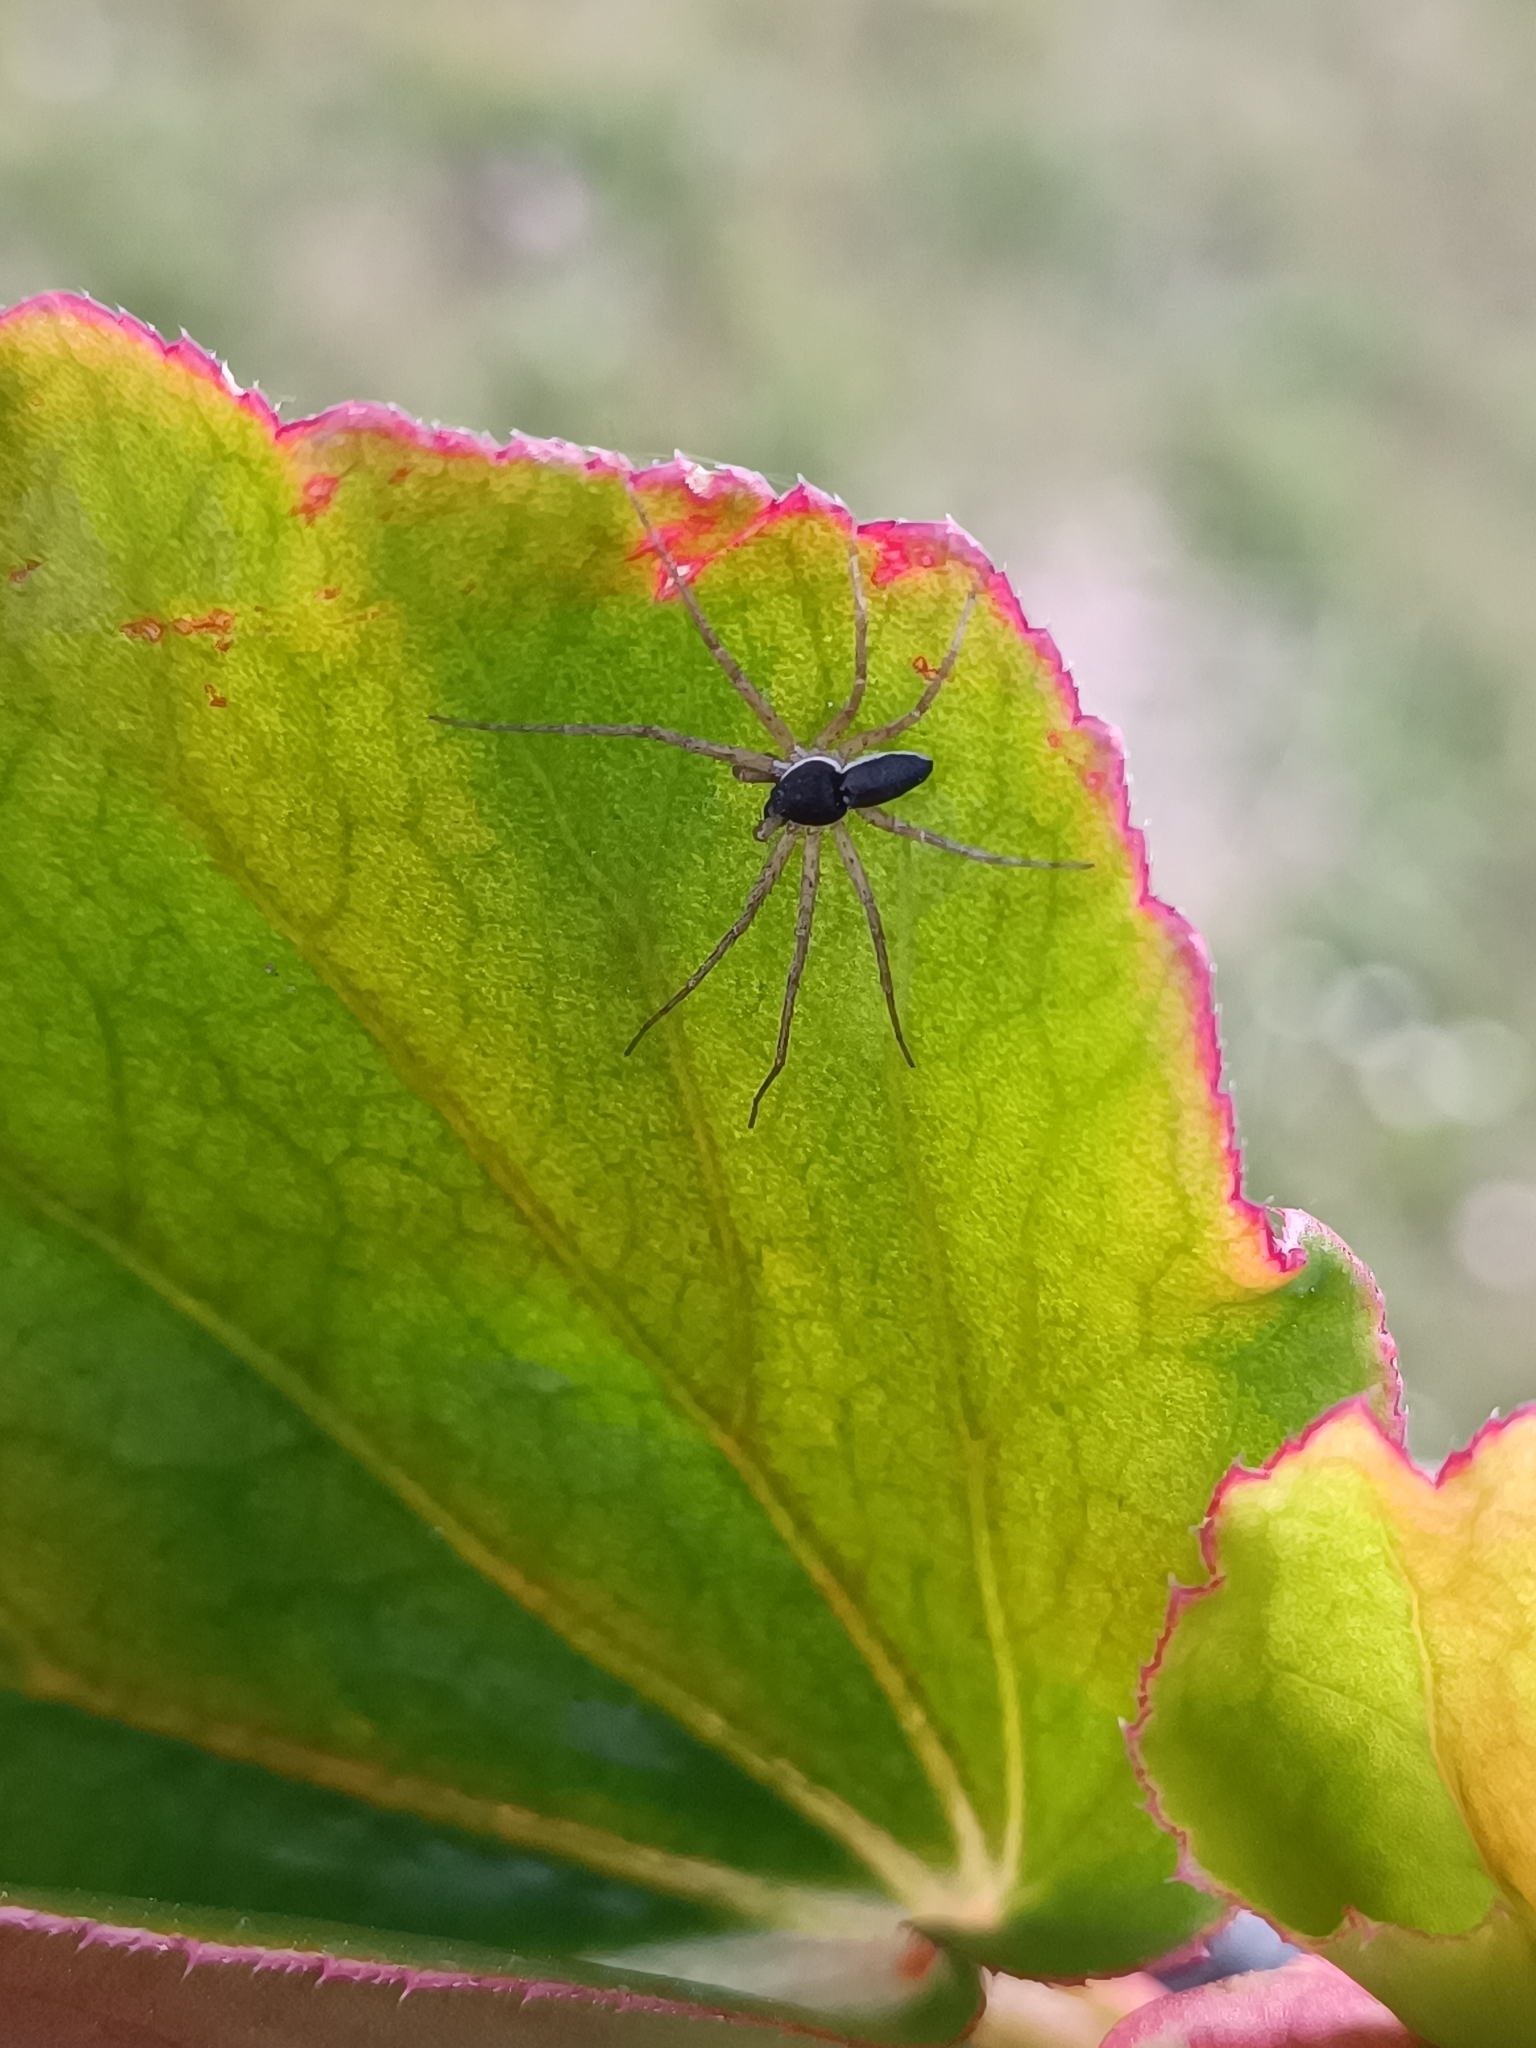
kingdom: Animalia
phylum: Arthropoda
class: Arachnida
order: Araneae
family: Philodromidae
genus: Philodromus
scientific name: Philodromus dispar
